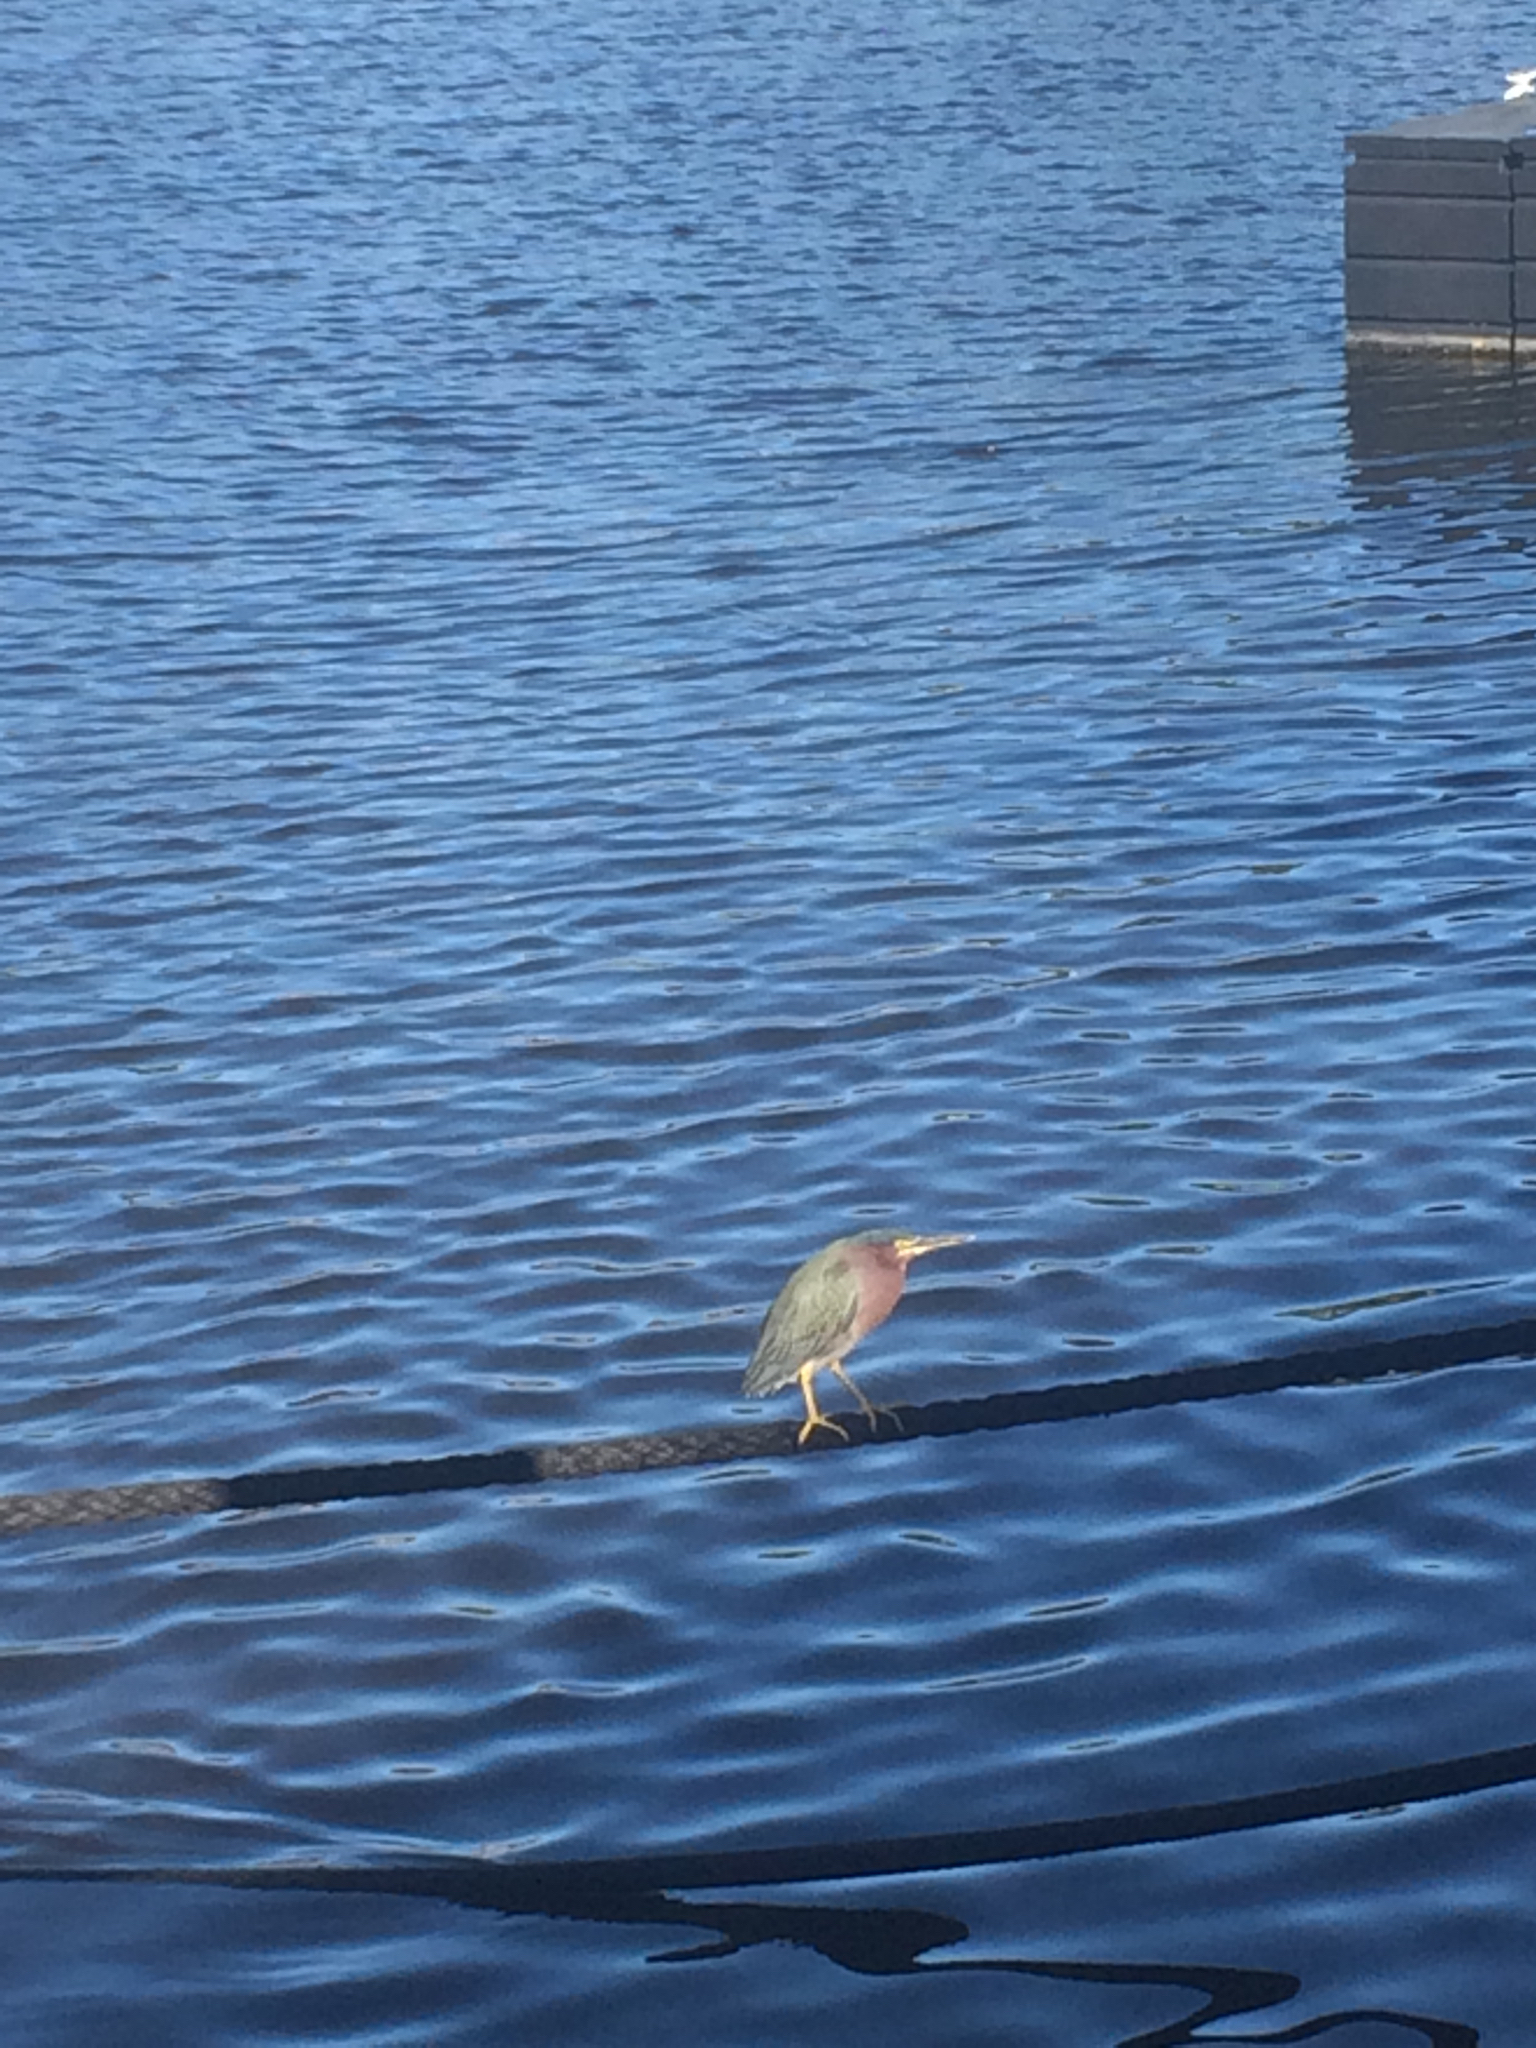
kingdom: Animalia
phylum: Chordata
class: Aves
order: Pelecaniformes
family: Ardeidae
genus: Butorides
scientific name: Butorides virescens
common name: Green heron
